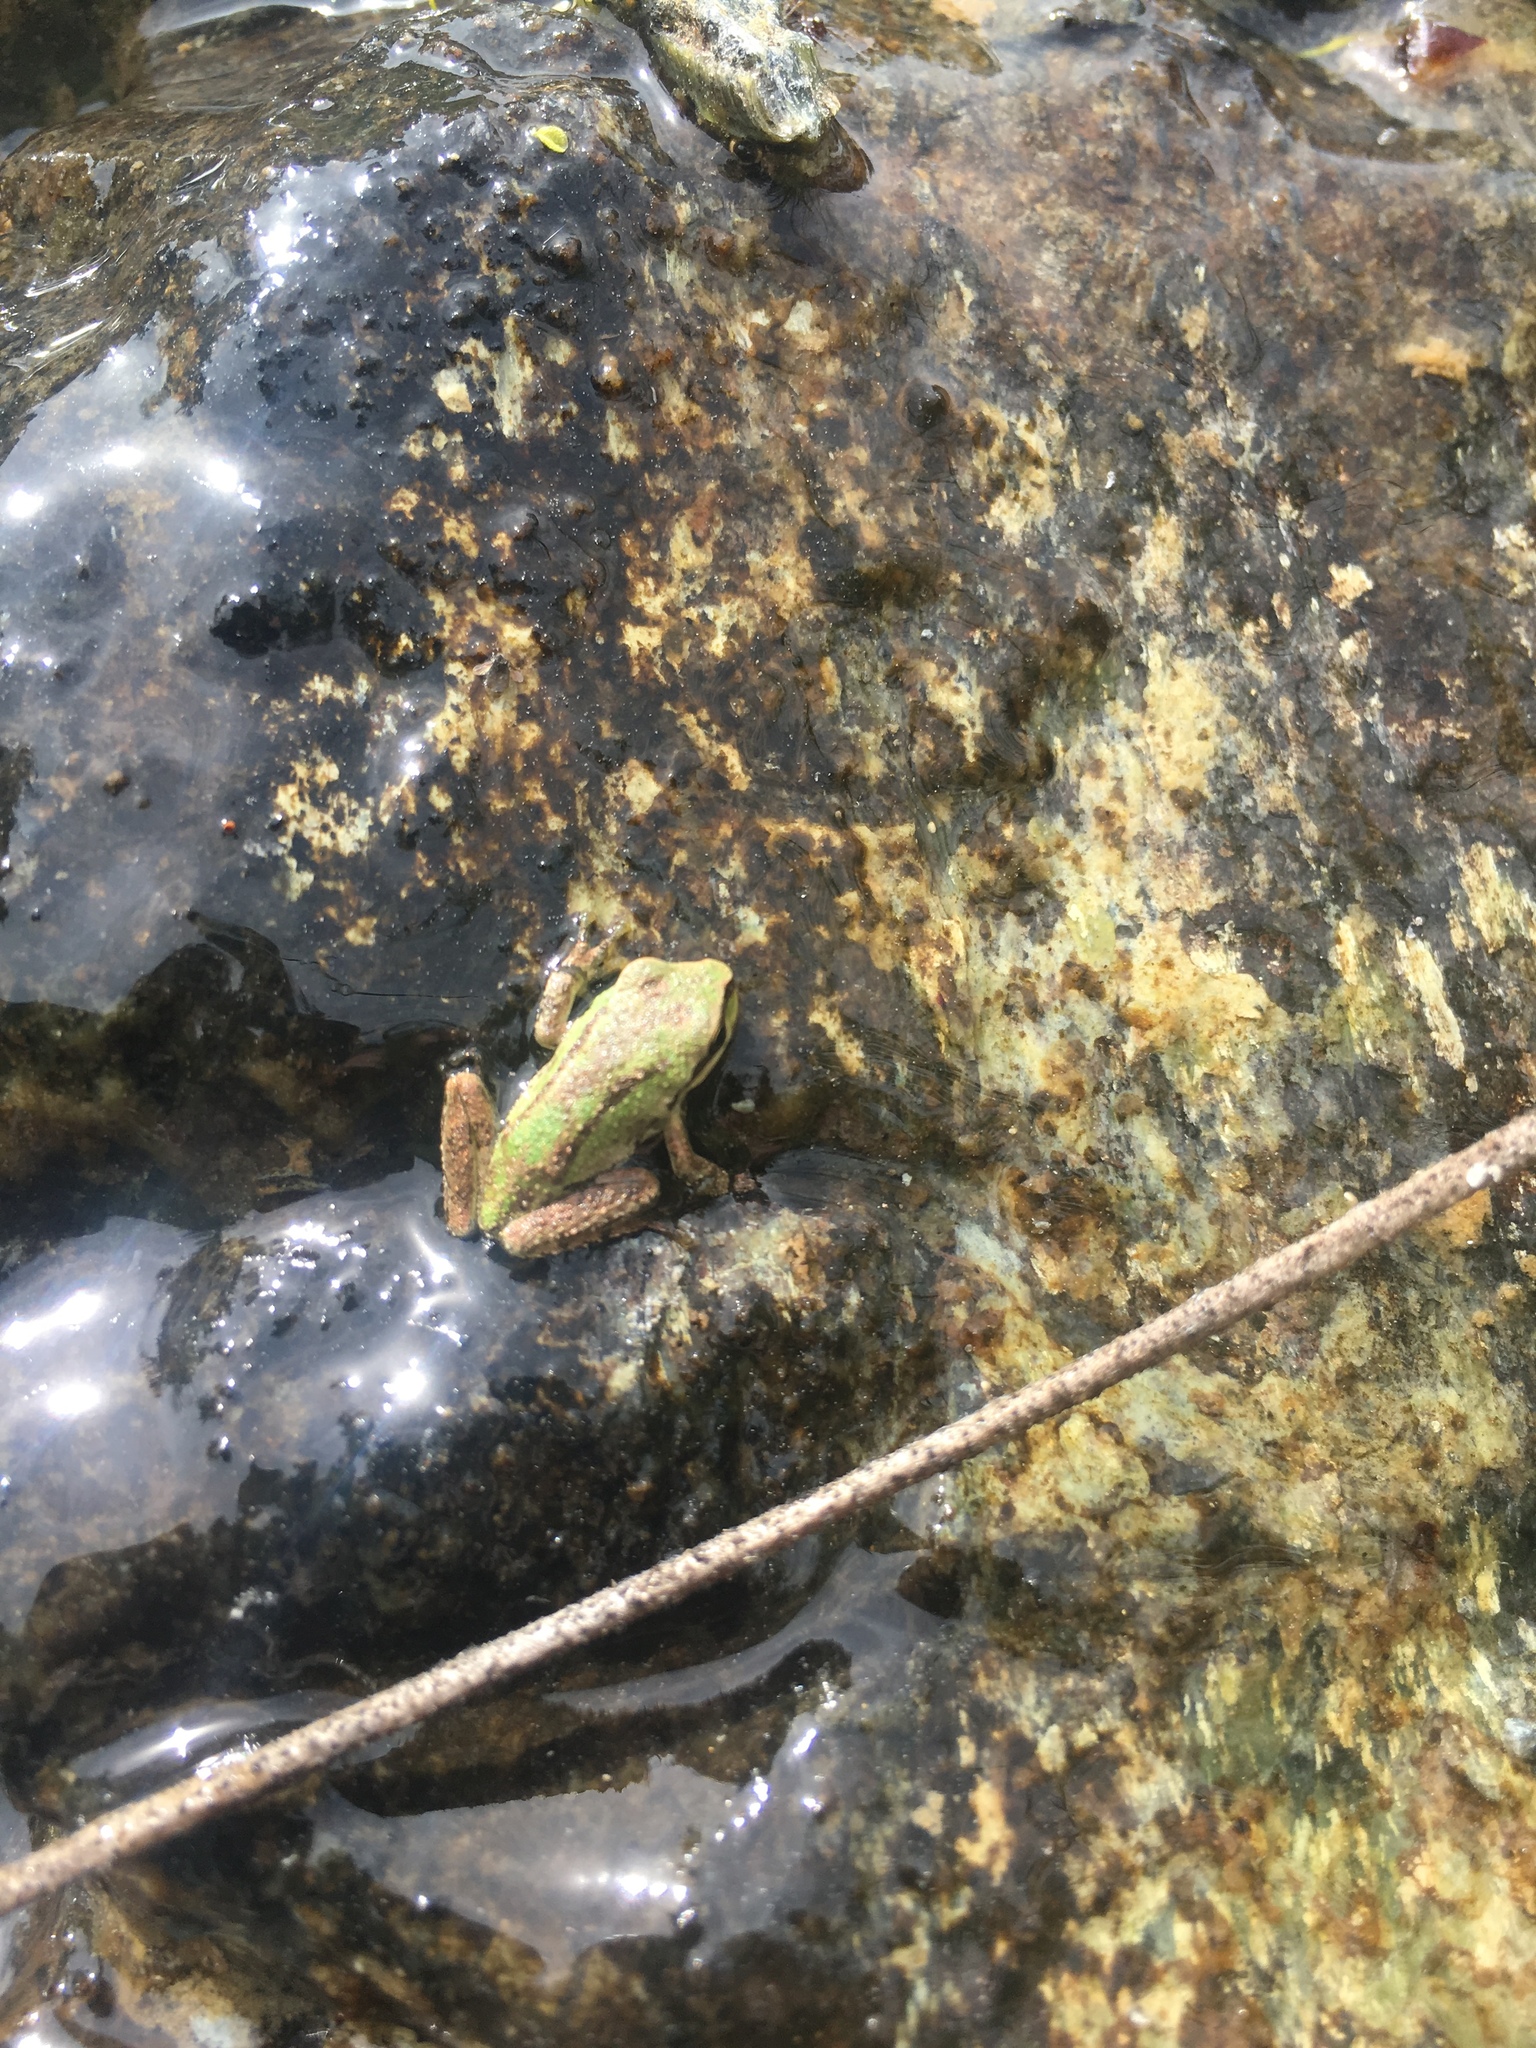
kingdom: Animalia
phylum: Chordata
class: Amphibia
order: Anura
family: Hylidae
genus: Pseudacris
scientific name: Pseudacris regilla
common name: Pacific chorus frog
